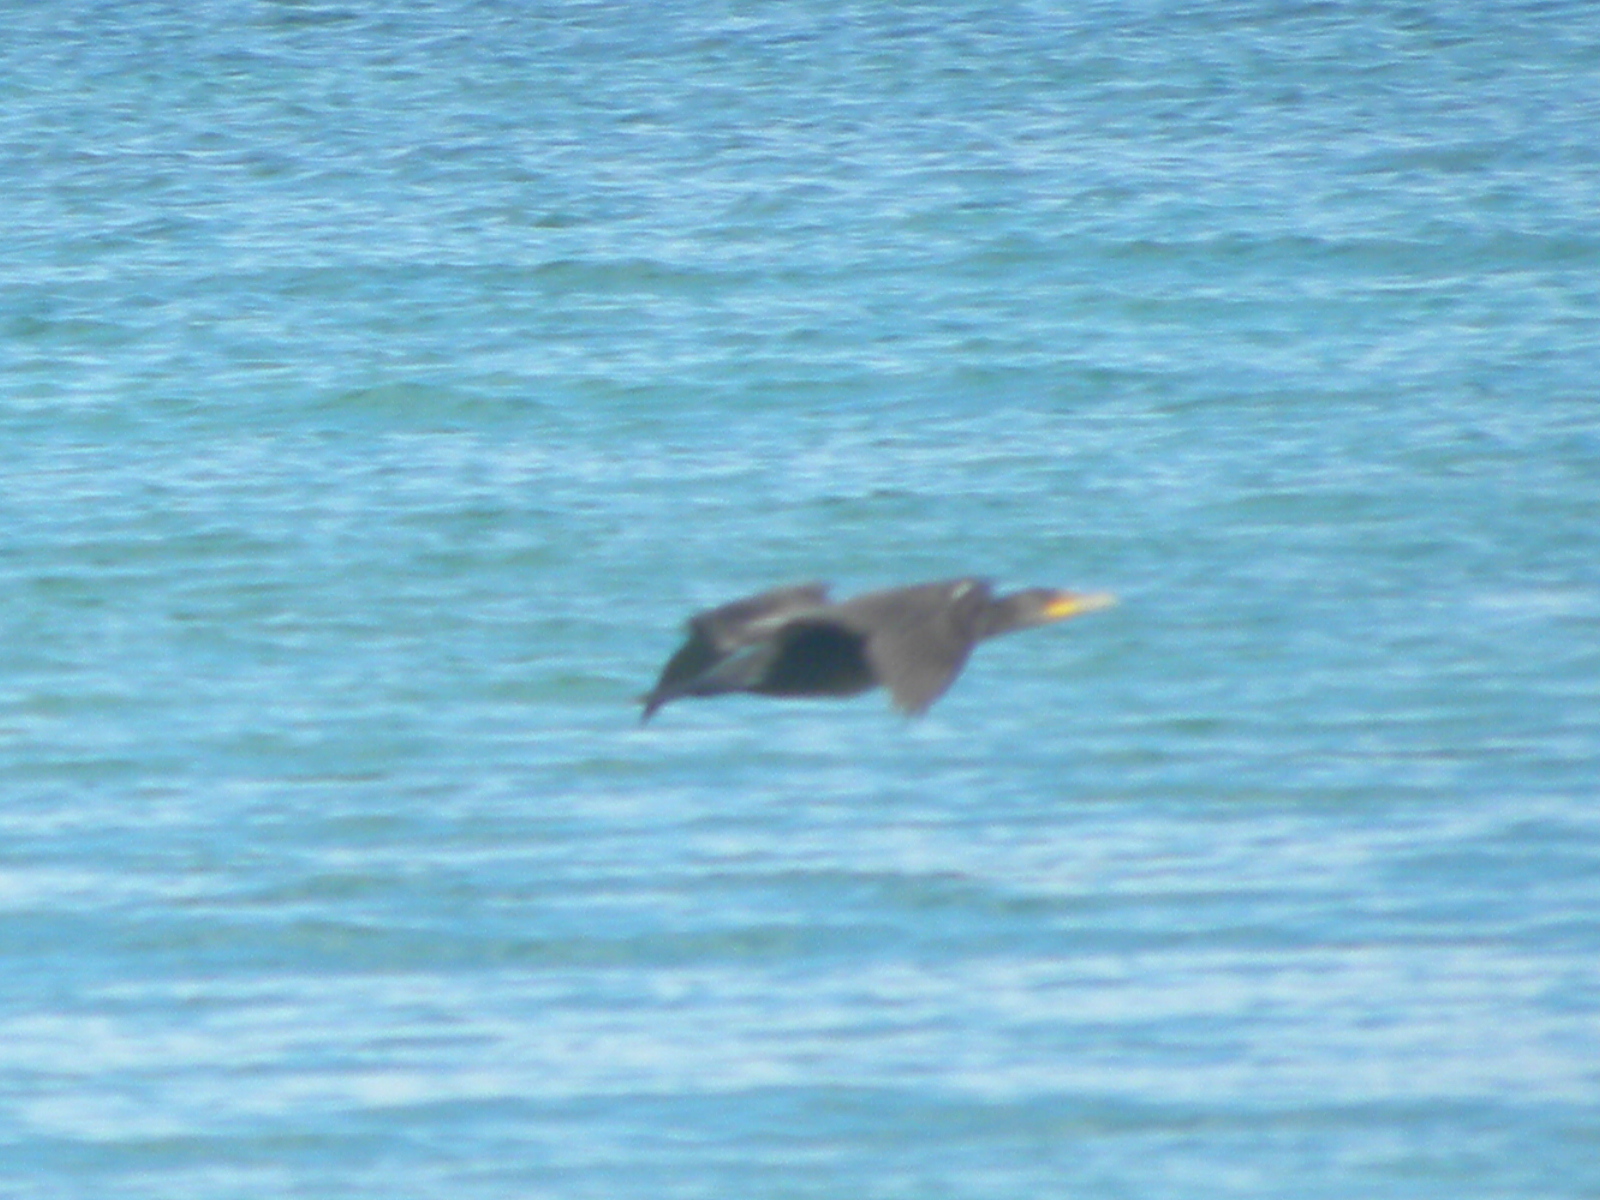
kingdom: Animalia
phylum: Chordata
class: Aves
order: Suliformes
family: Phalacrocoracidae
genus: Phalacrocorax
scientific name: Phalacrocorax auritus
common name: Double-crested cormorant
